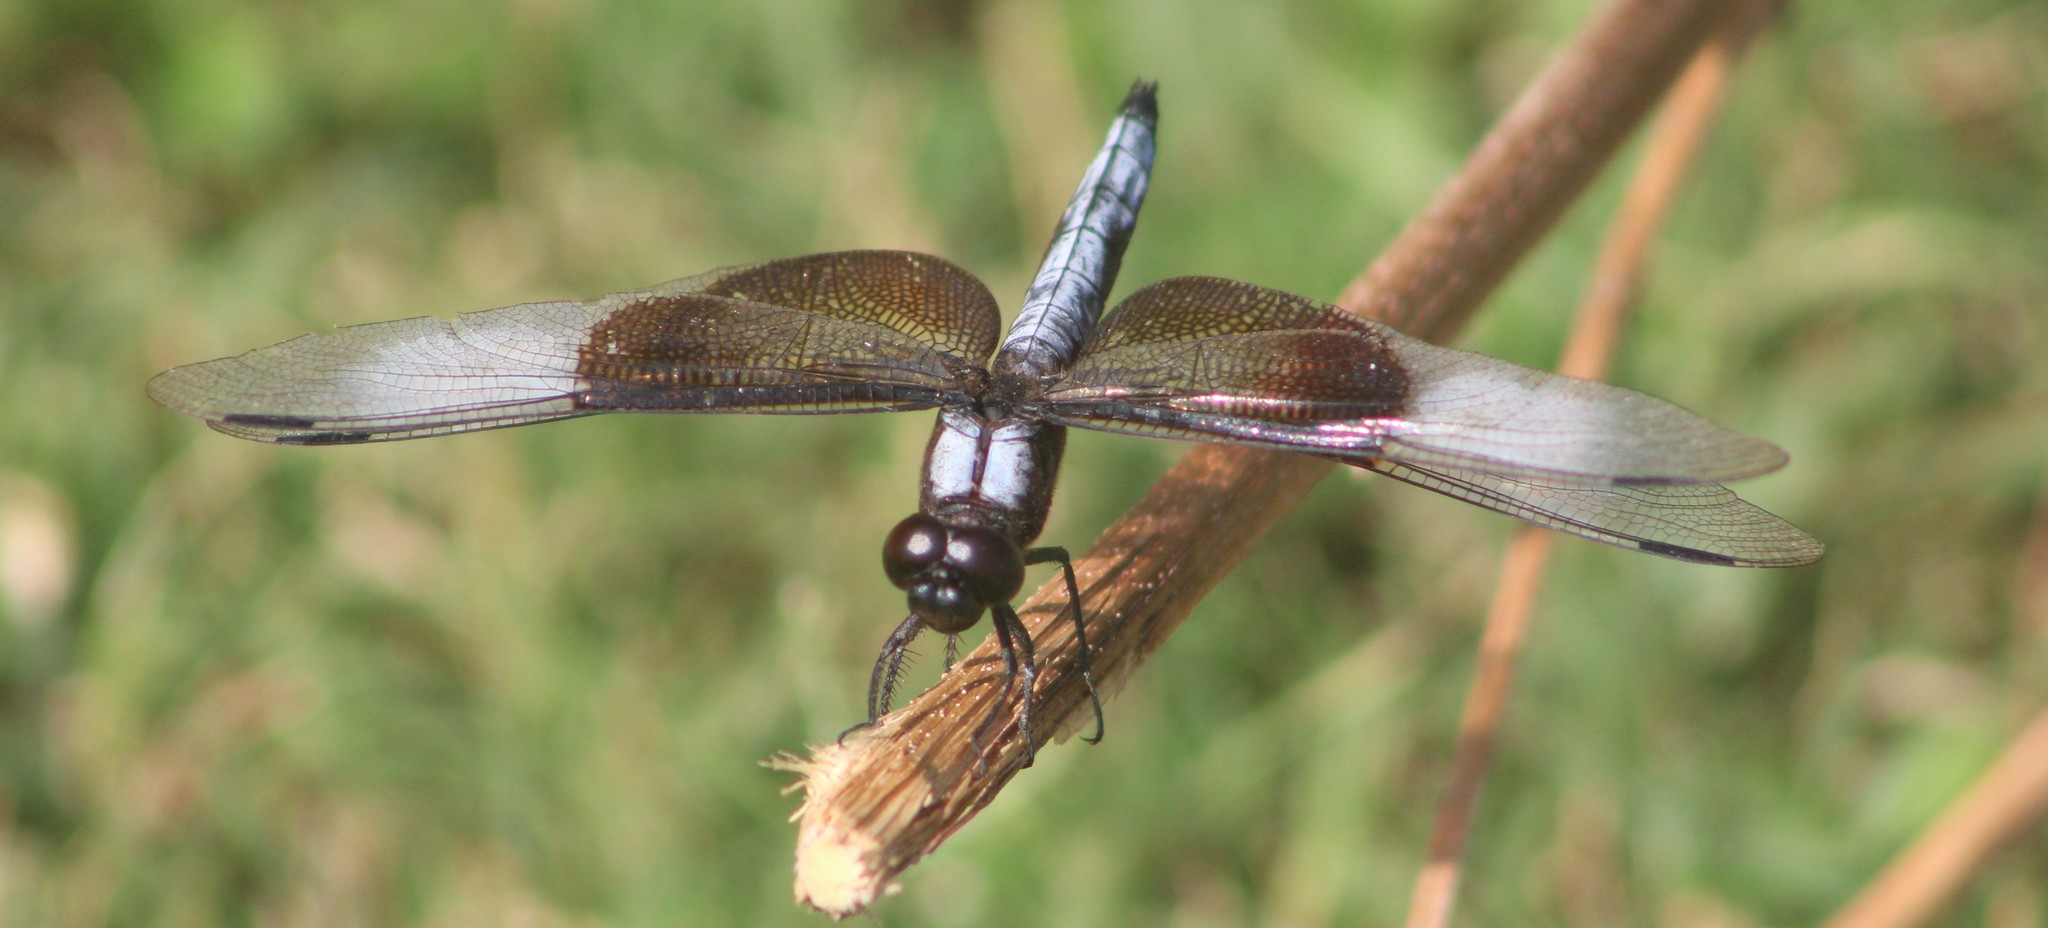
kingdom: Animalia
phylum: Arthropoda
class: Insecta
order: Odonata
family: Libellulidae
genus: Libellula
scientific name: Libellula luctuosa
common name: Widow skimmer
